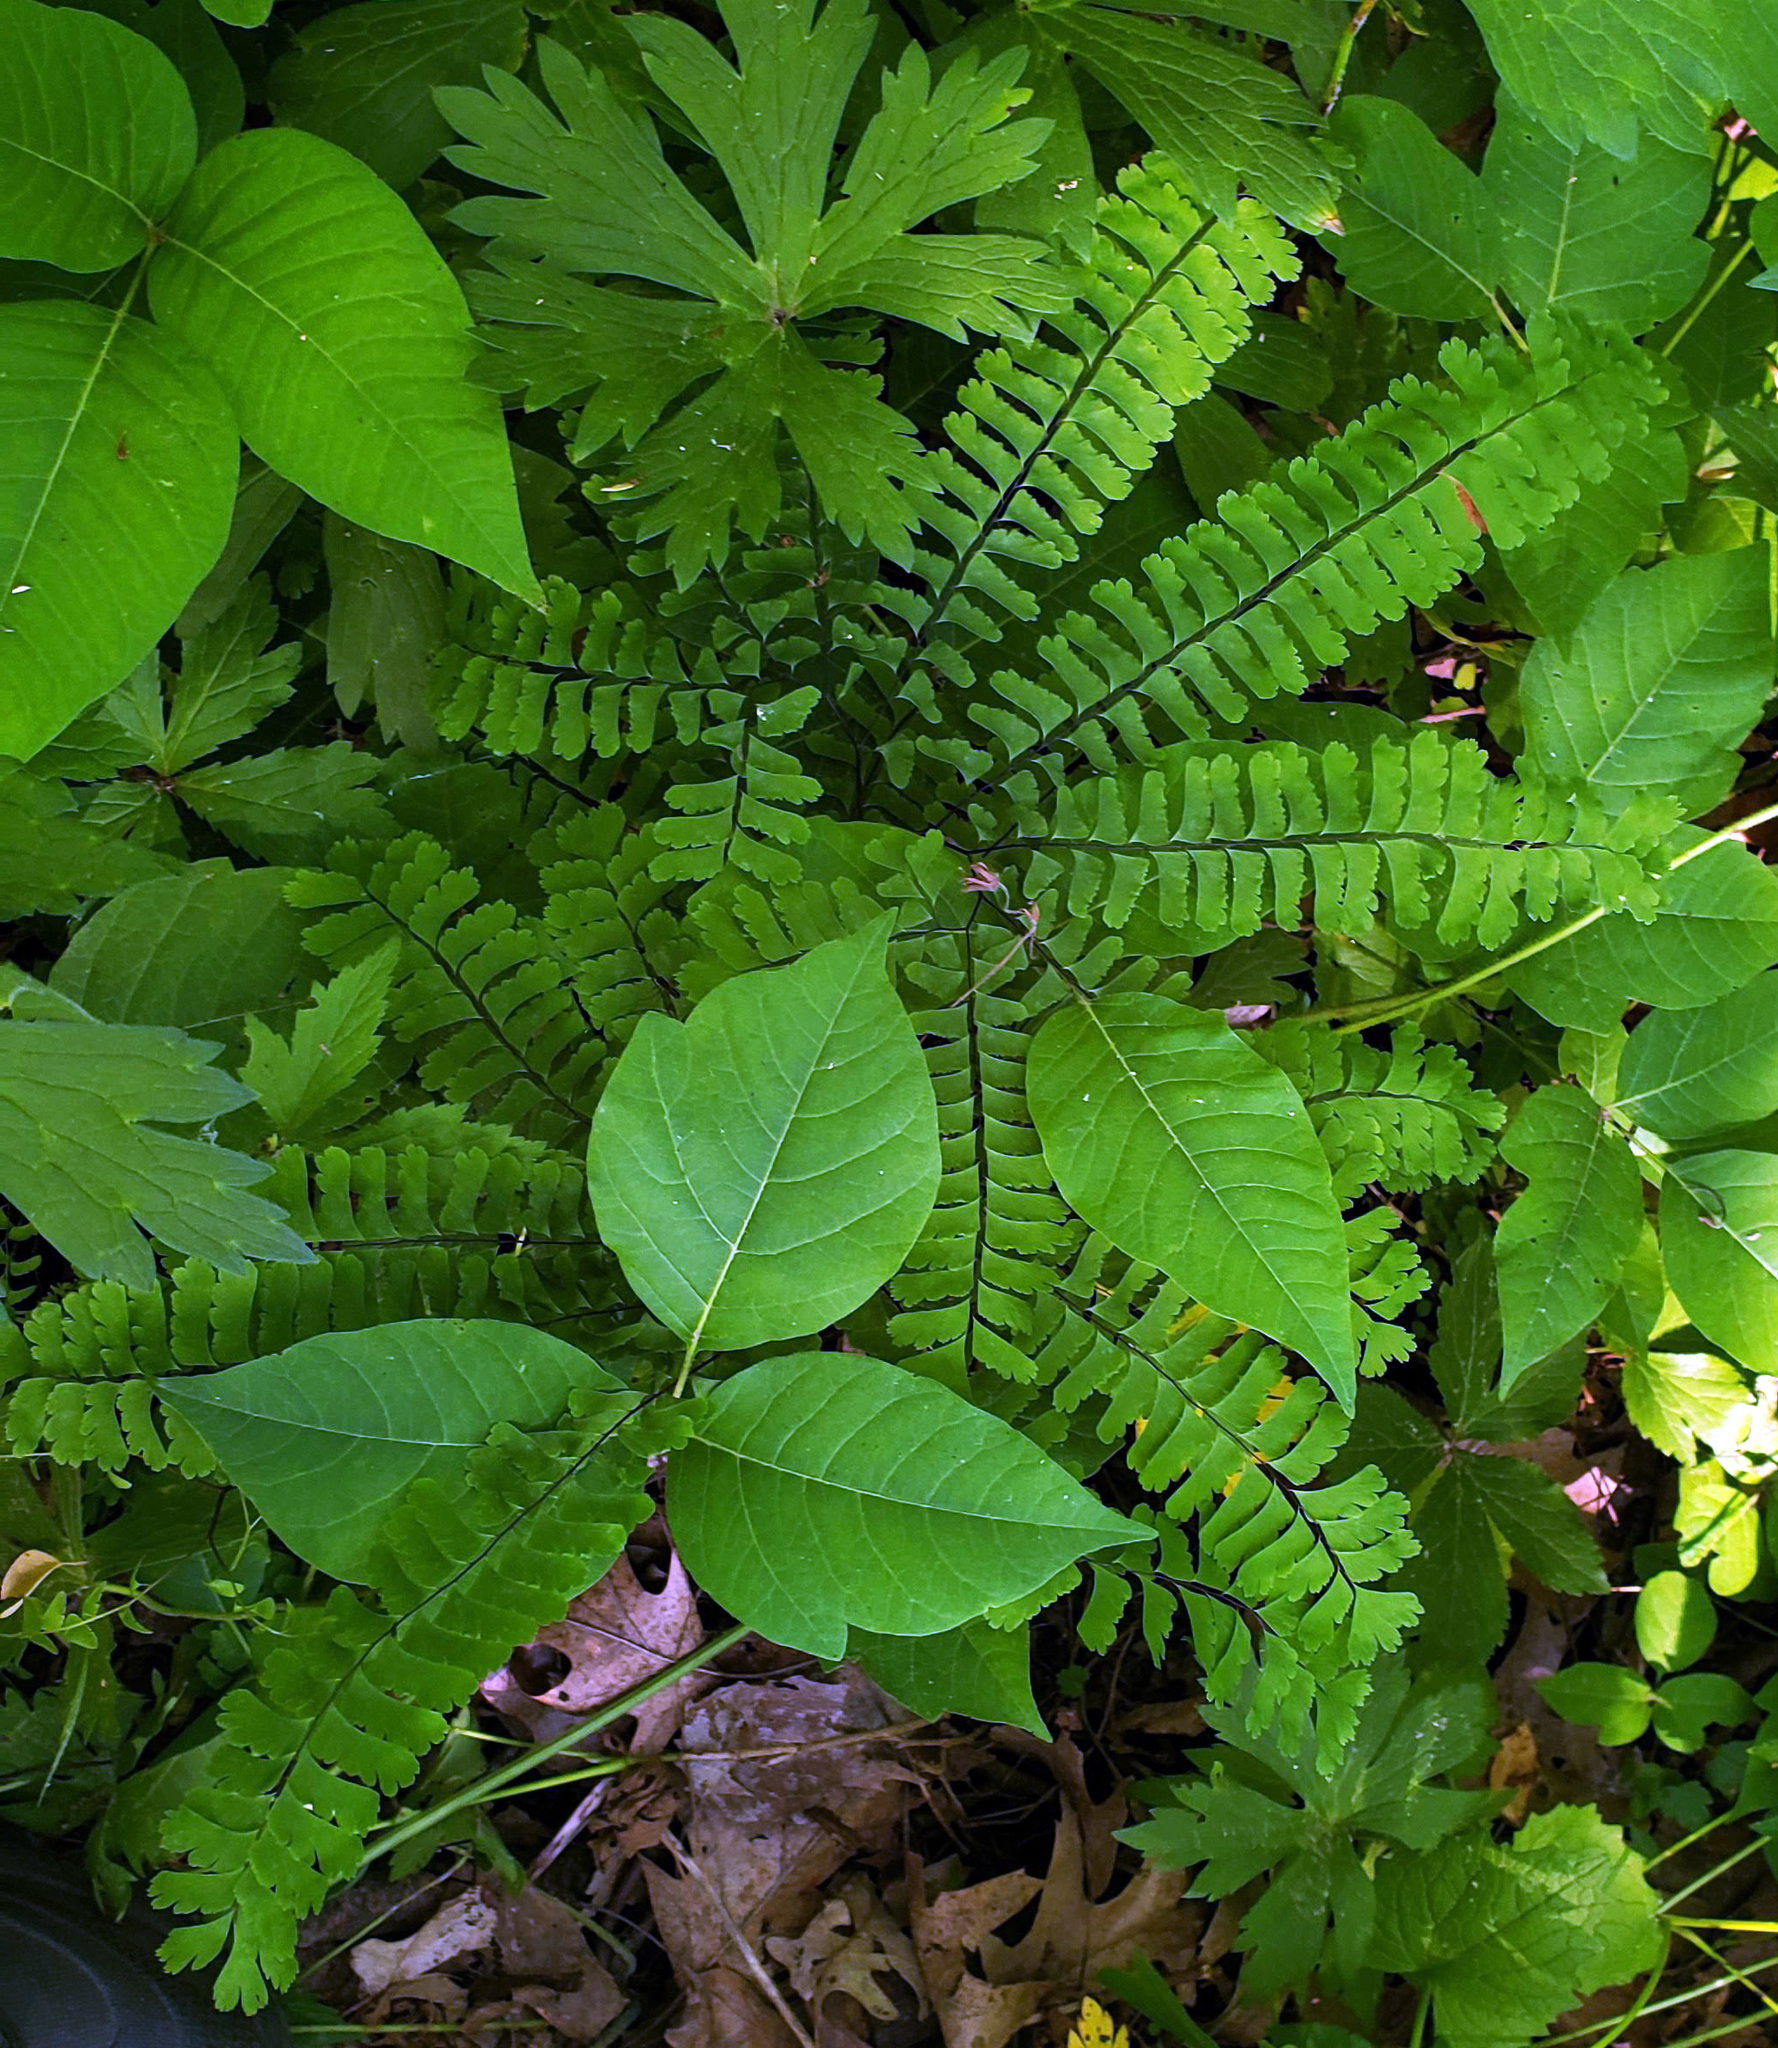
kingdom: Plantae
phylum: Tracheophyta
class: Polypodiopsida
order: Polypodiales
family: Pteridaceae
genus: Adiantum
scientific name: Adiantum pedatum
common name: Five-finger fern
